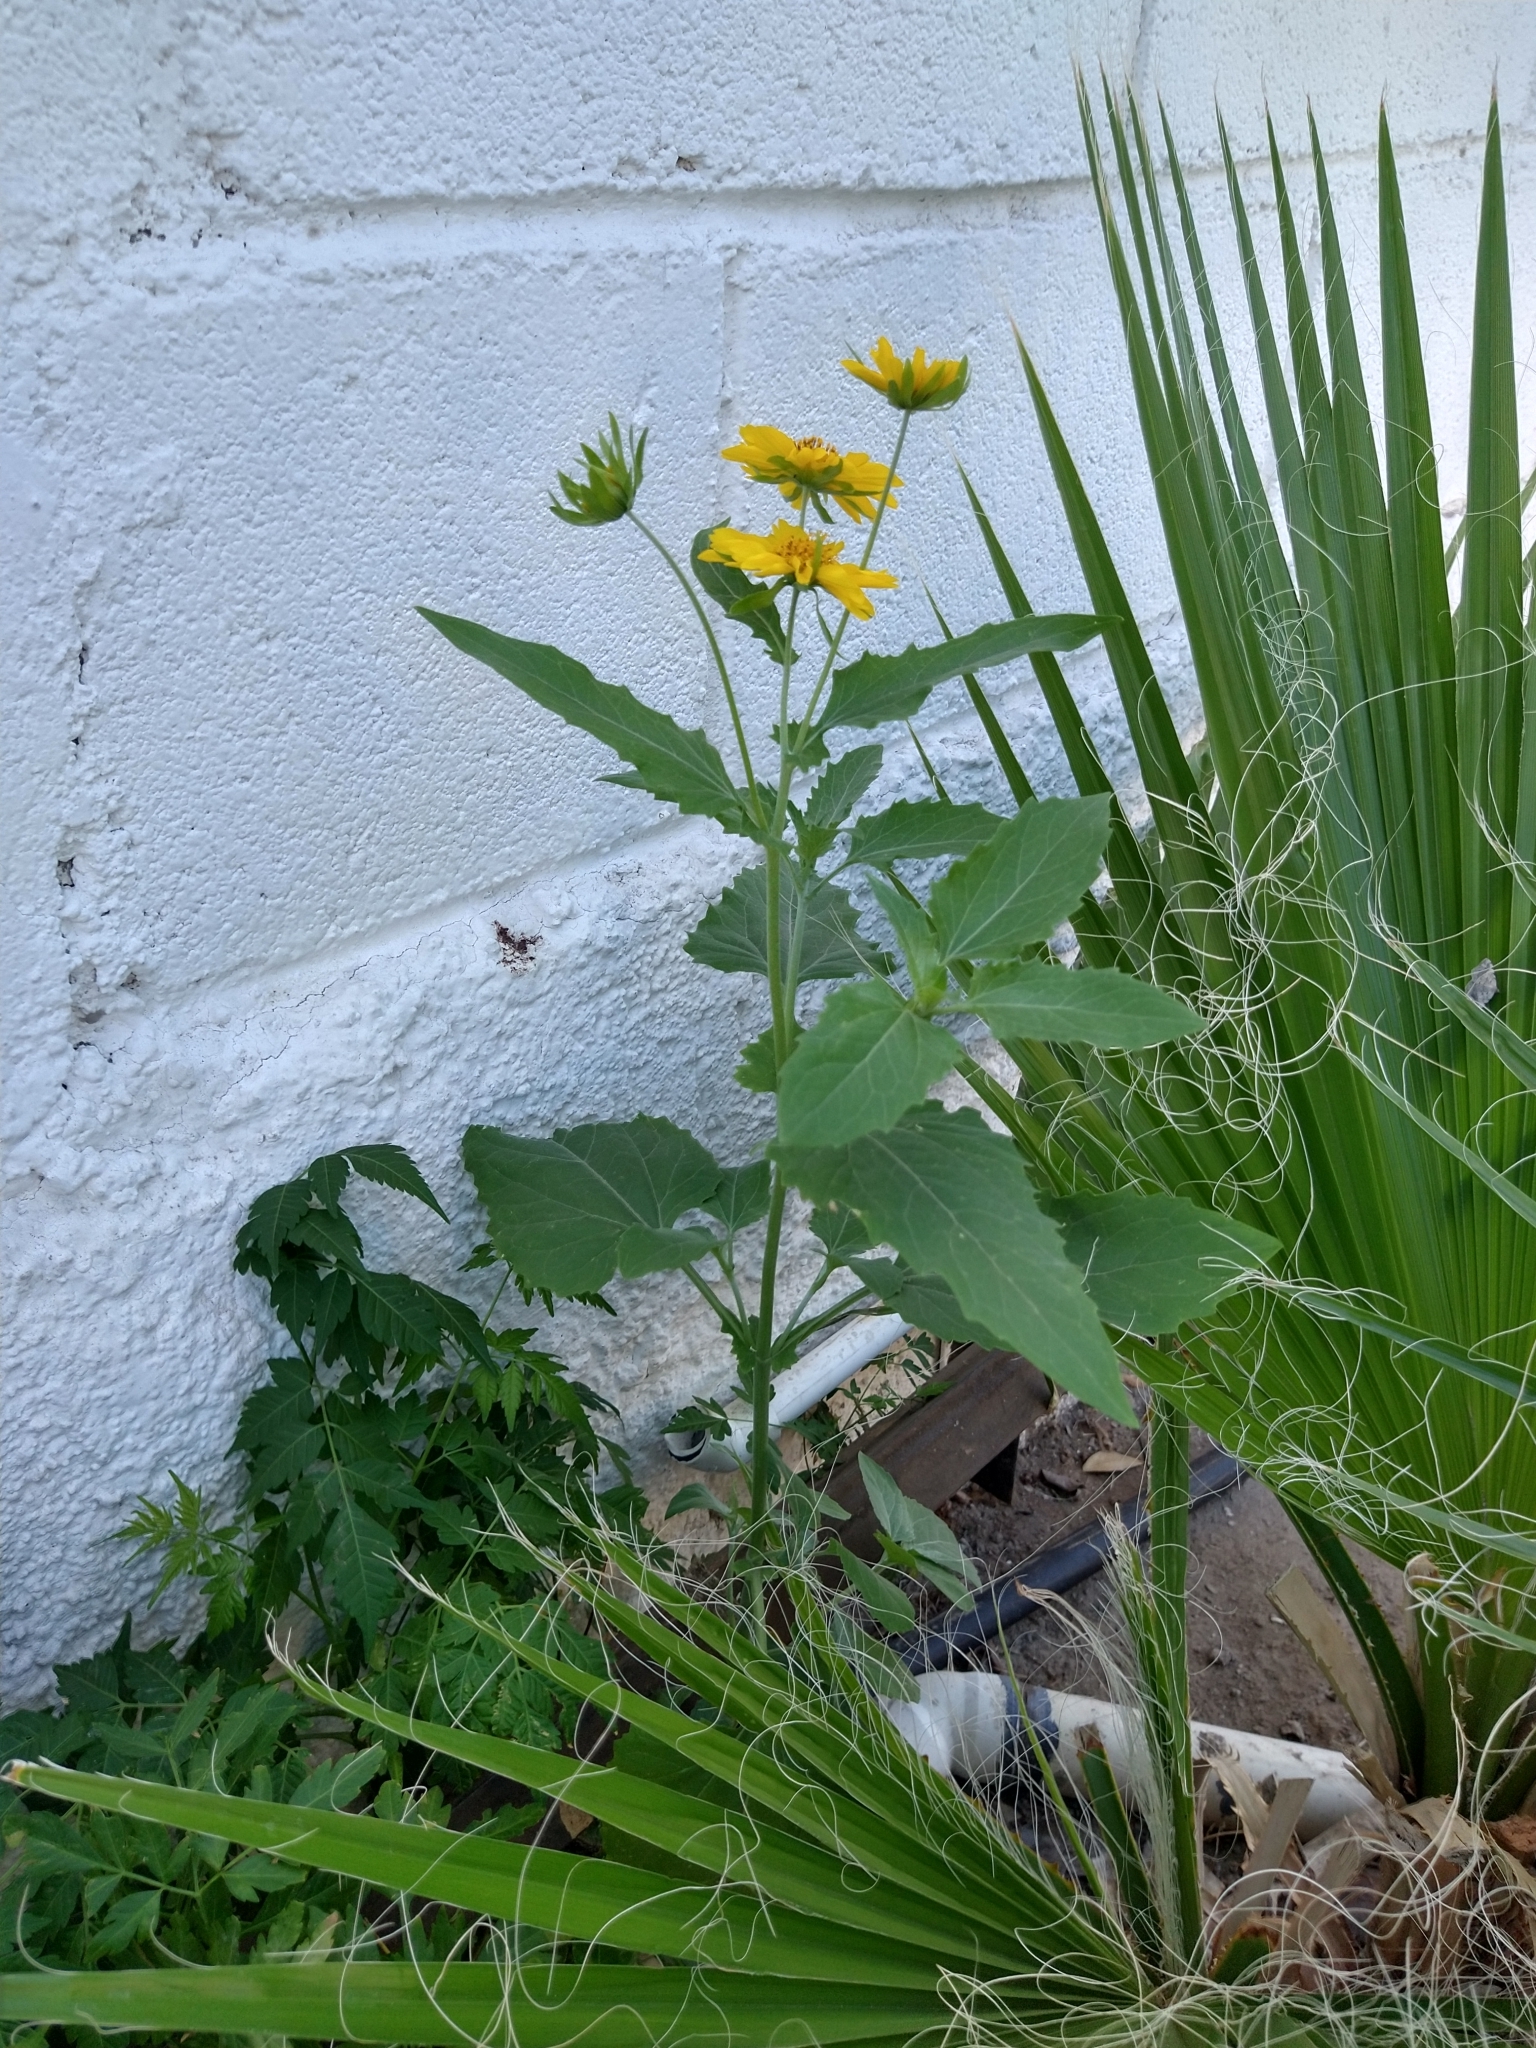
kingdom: Plantae
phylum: Tracheophyta
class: Magnoliopsida
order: Asterales
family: Asteraceae
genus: Verbesina
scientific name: Verbesina encelioides
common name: Golden crownbeard
